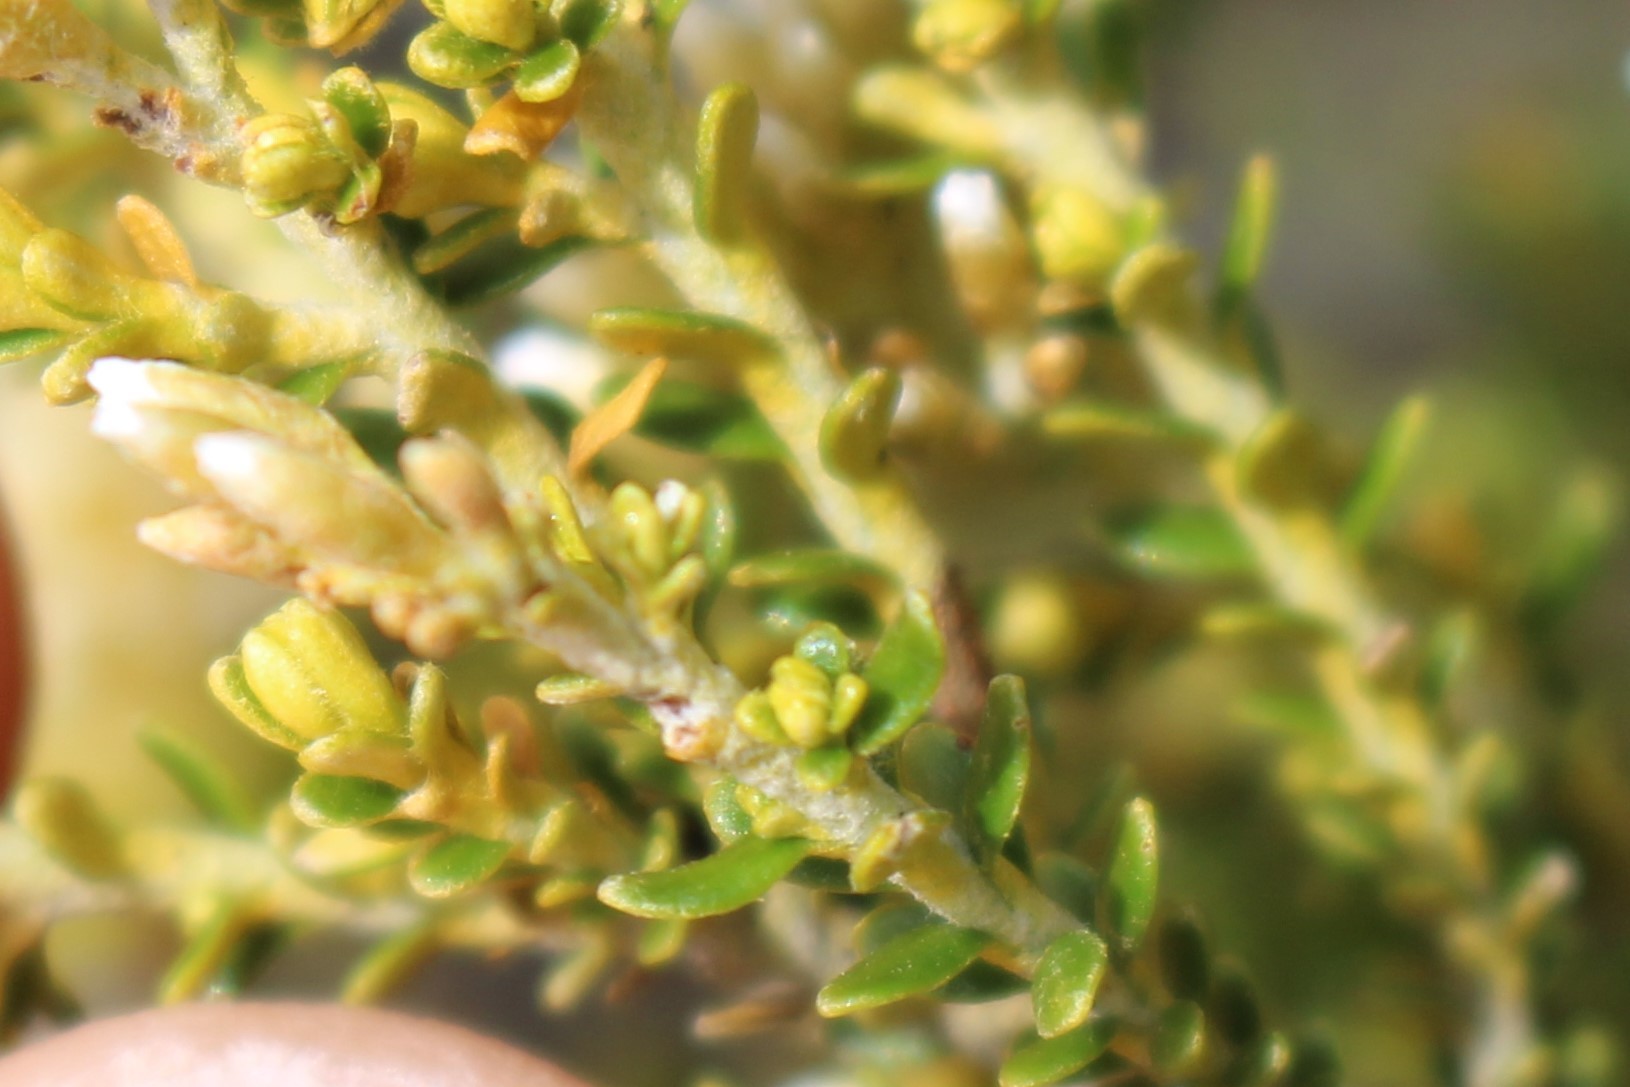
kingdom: Plantae
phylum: Tracheophyta
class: Magnoliopsida
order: Asterales
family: Asteraceae
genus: Ozothamnus
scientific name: Ozothamnus leptophyllus
